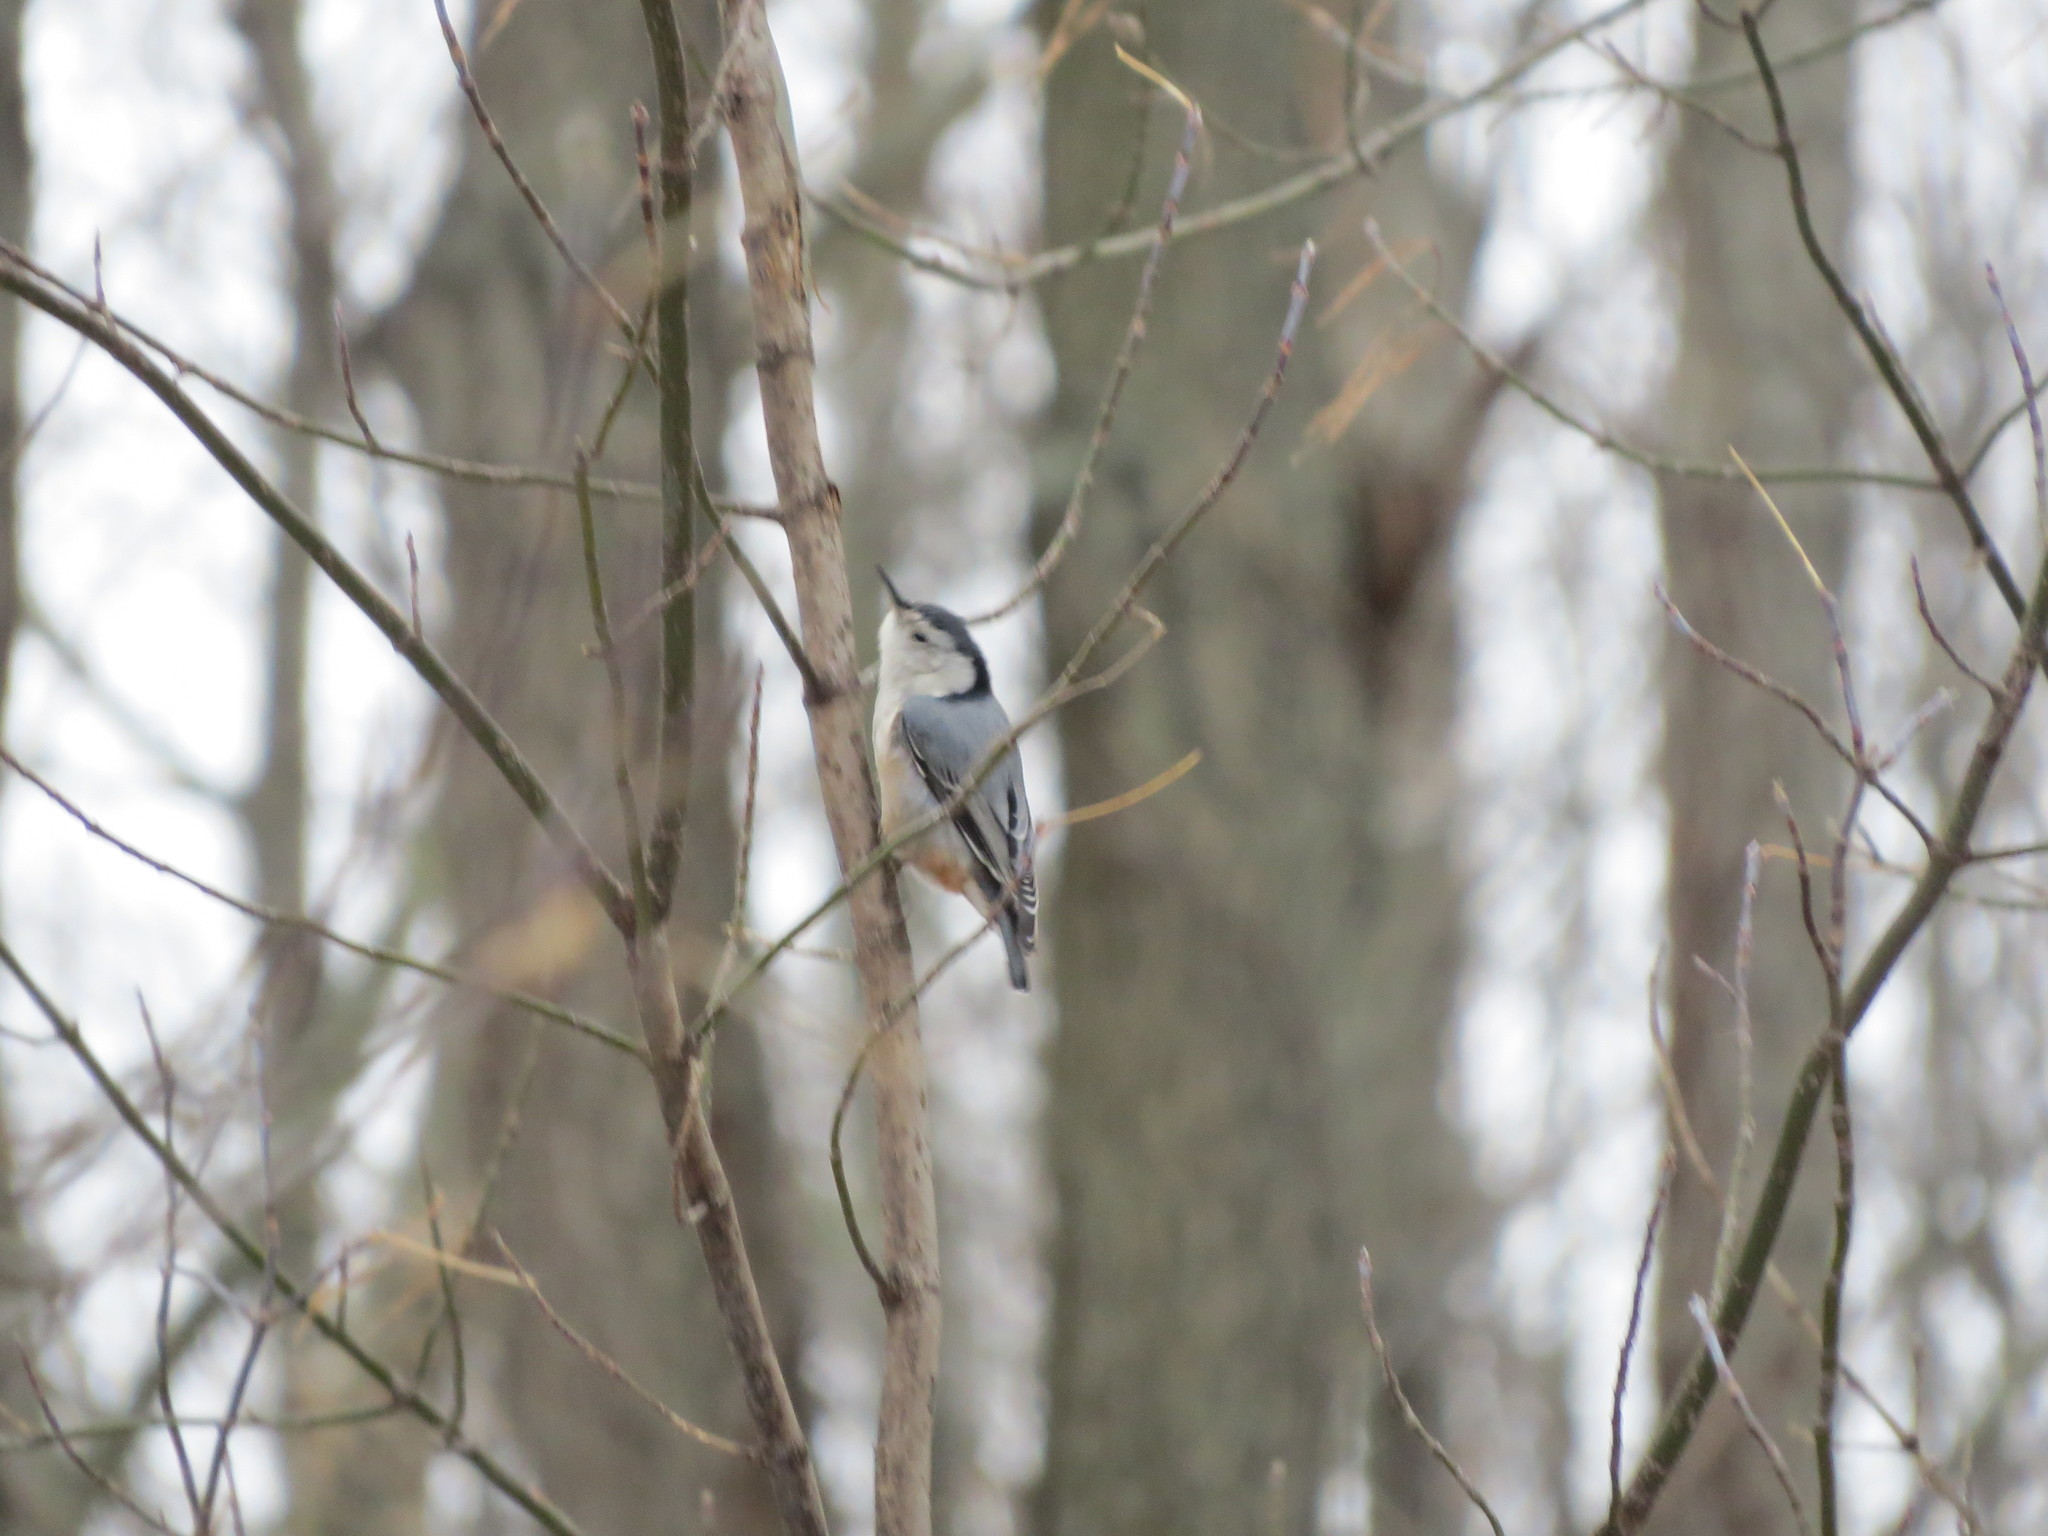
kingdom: Animalia
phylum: Chordata
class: Aves
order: Passeriformes
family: Sittidae
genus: Sitta
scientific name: Sitta carolinensis
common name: White-breasted nuthatch
